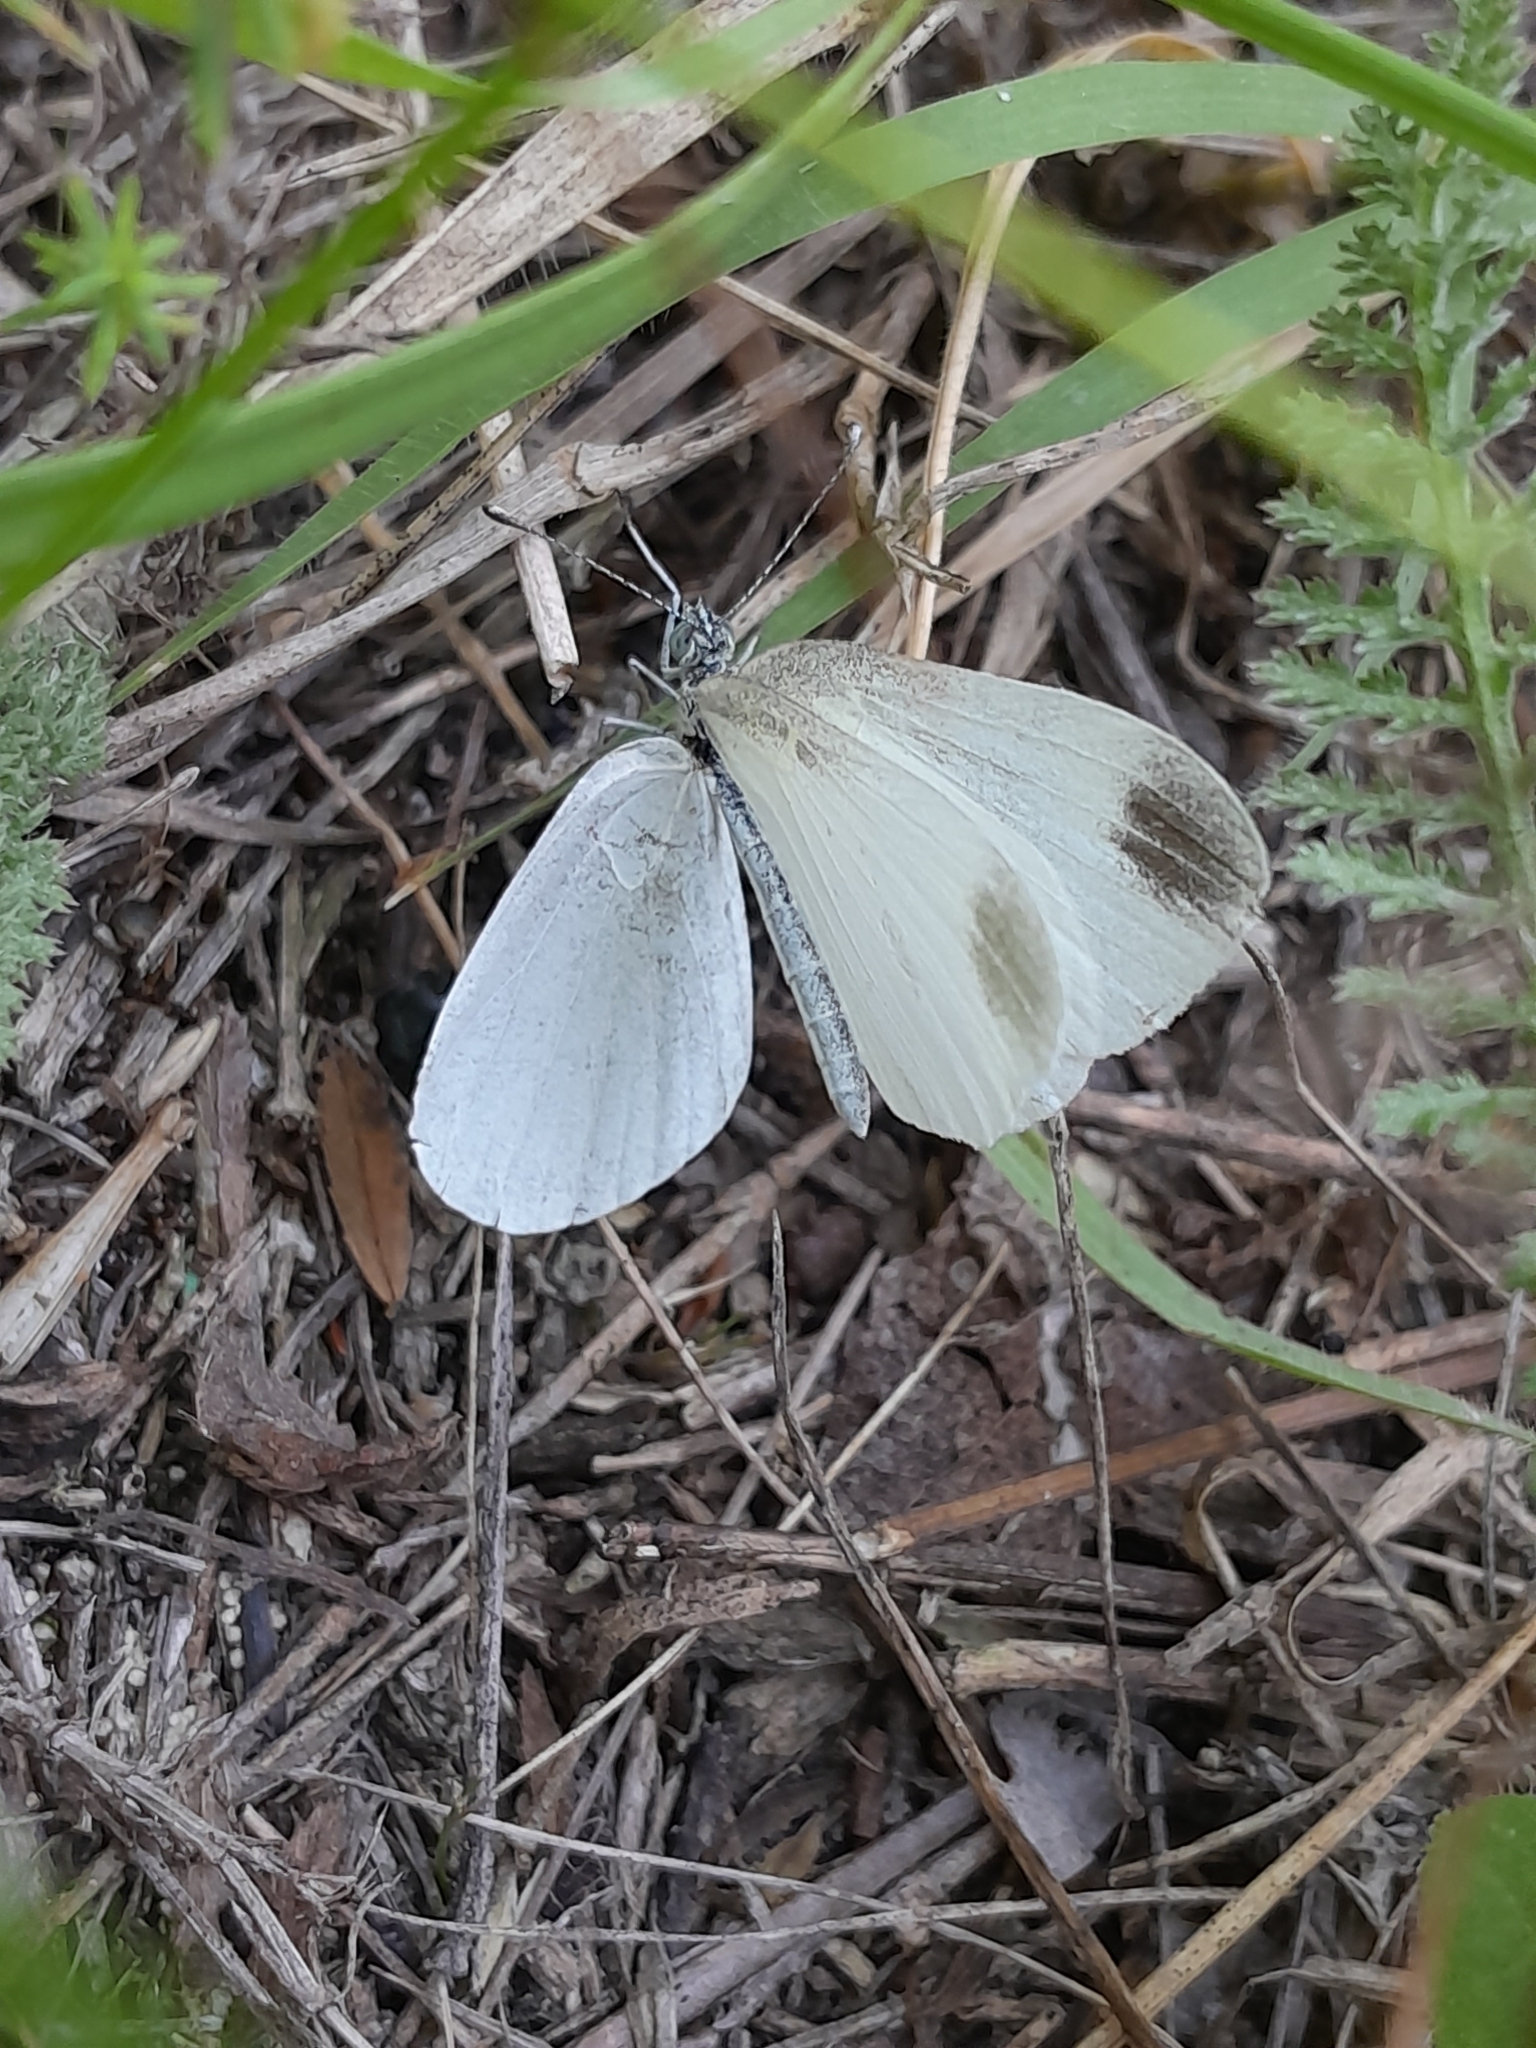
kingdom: Animalia
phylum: Arthropoda
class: Insecta
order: Lepidoptera
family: Pieridae
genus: Leptidea
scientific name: Leptidea
